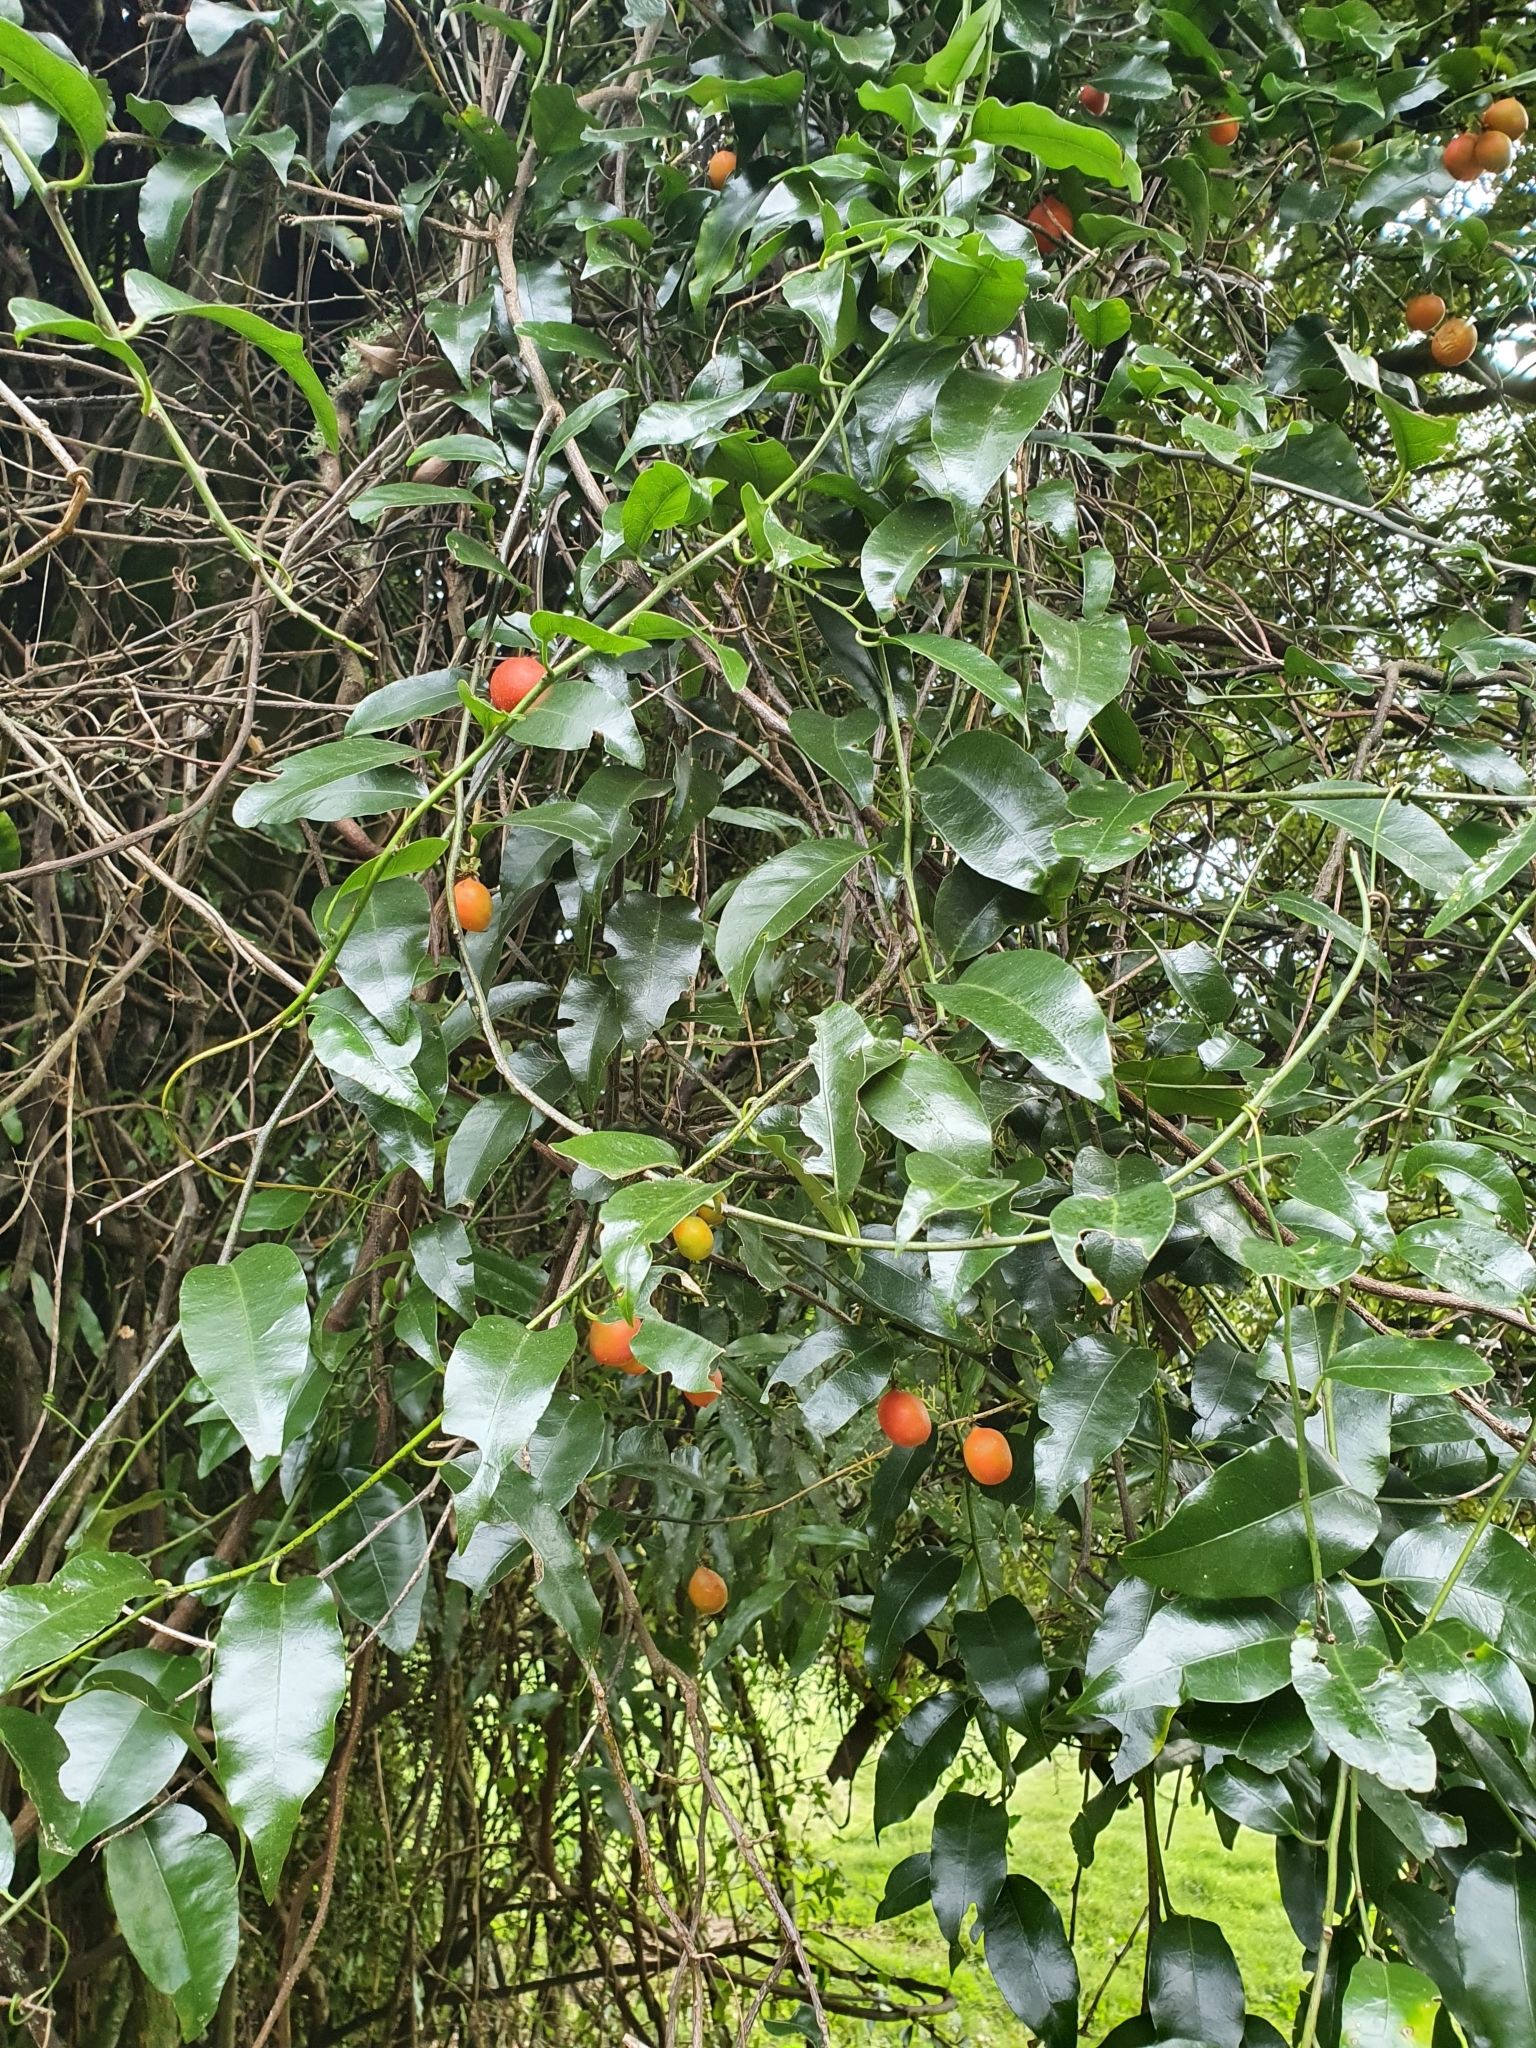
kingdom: Plantae
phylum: Tracheophyta
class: Magnoliopsida
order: Malpighiales
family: Passifloraceae
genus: Passiflora
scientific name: Passiflora tetrandra
